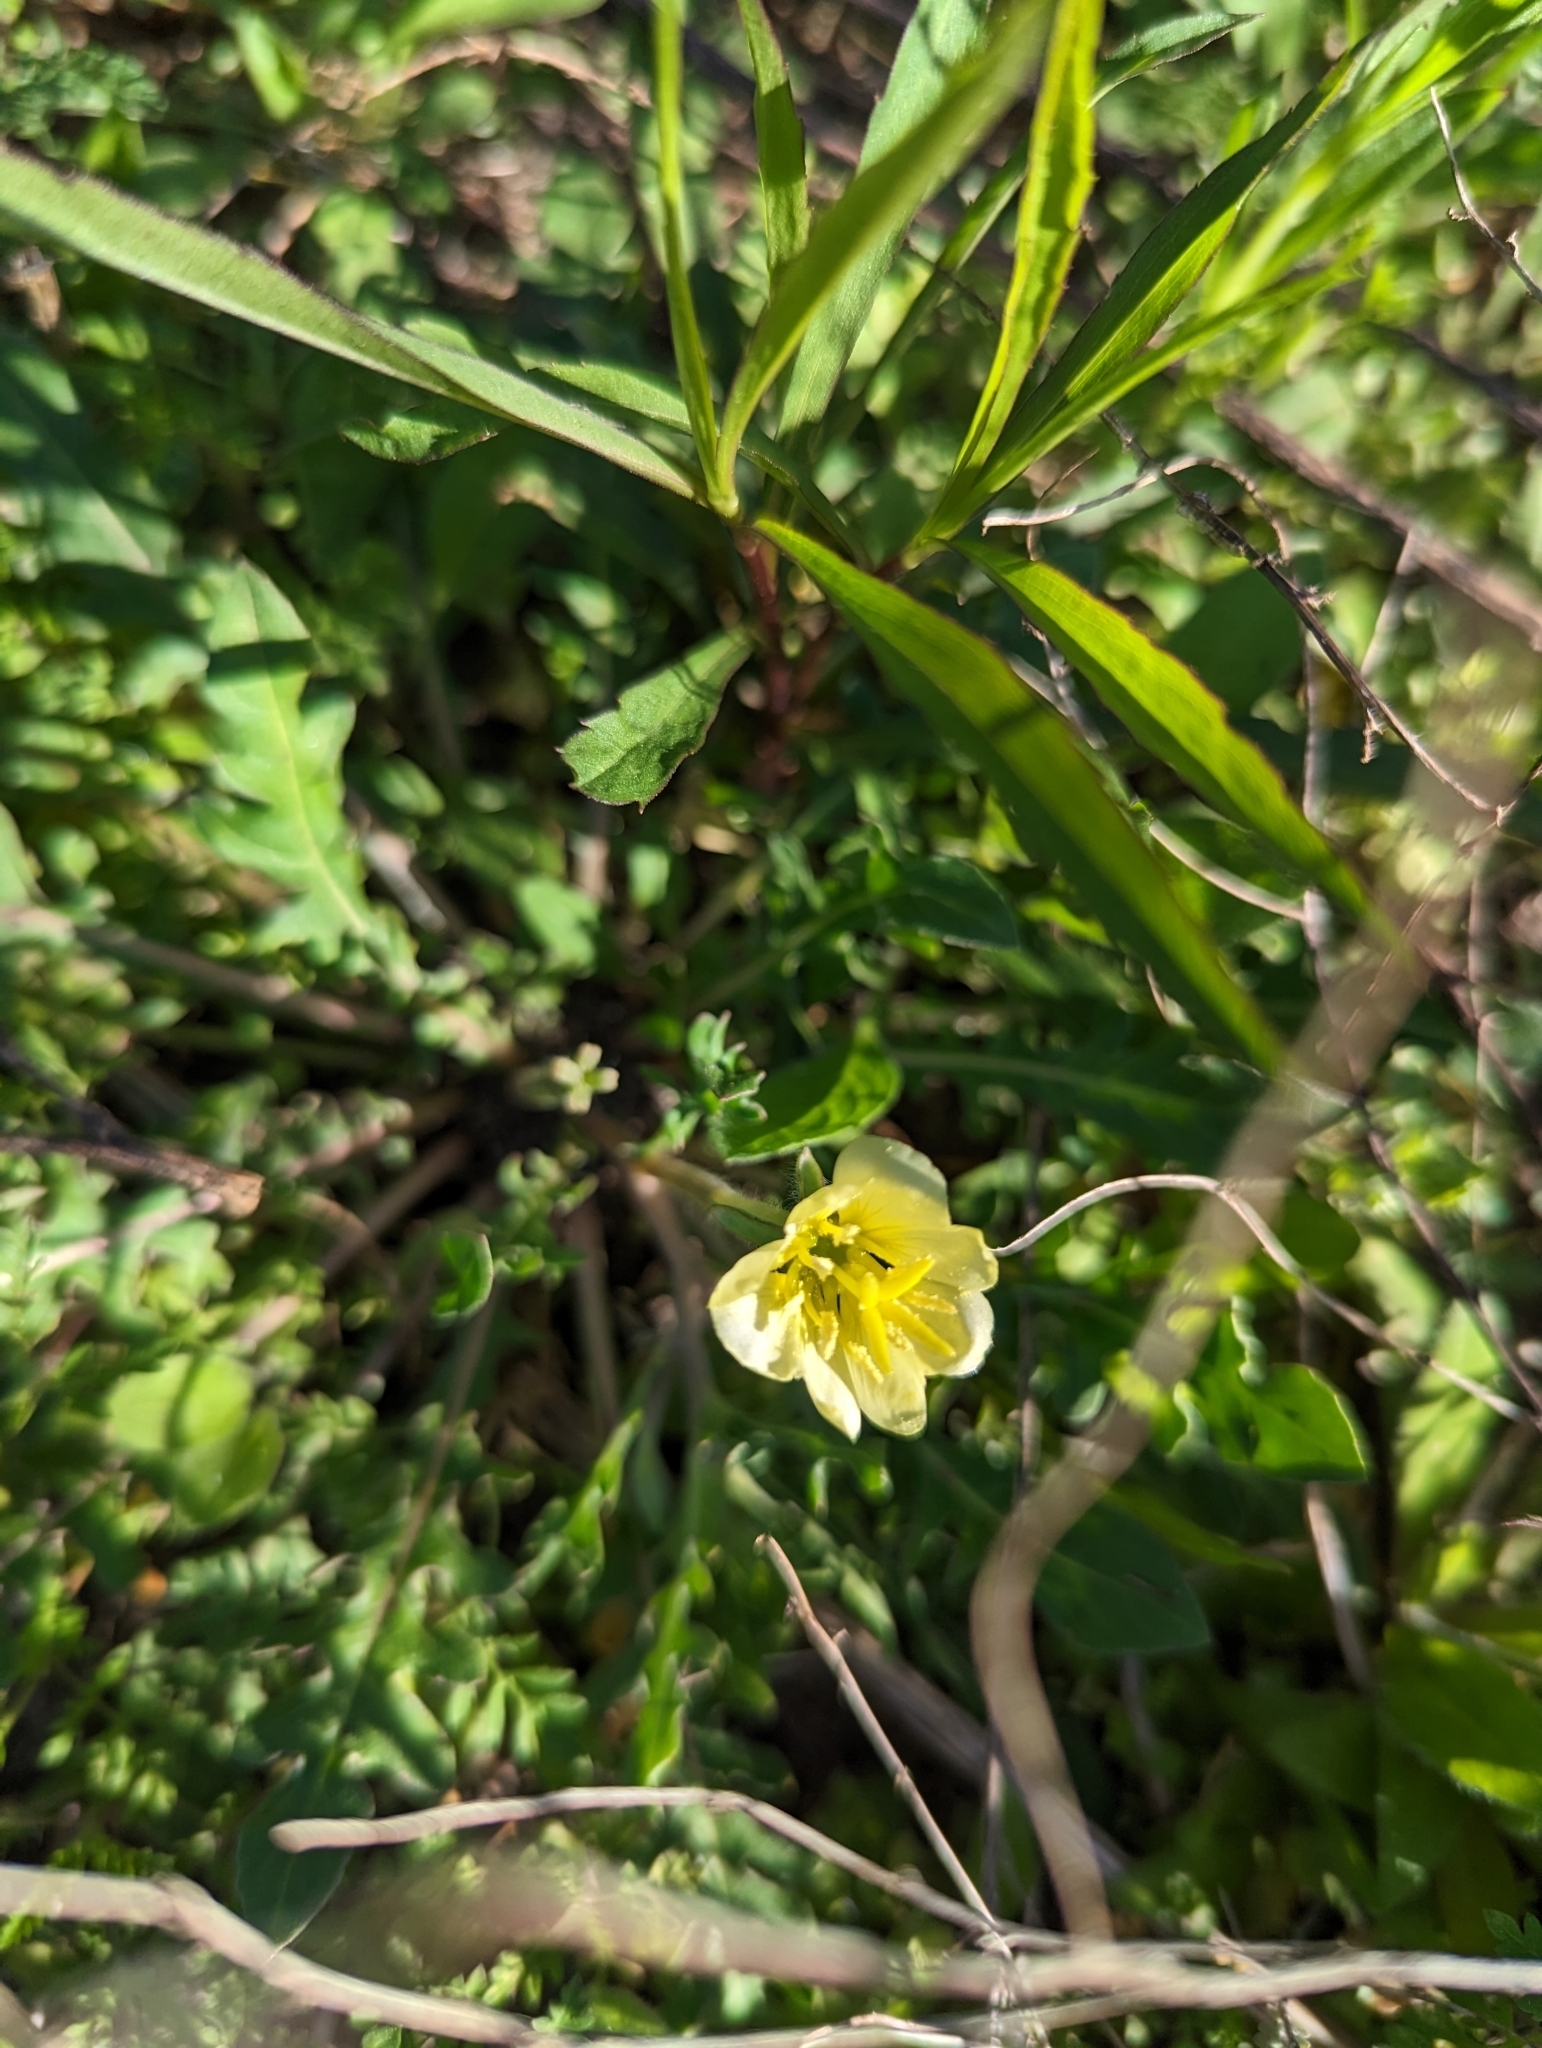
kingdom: Plantae
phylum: Tracheophyta
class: Magnoliopsida
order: Myrtales
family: Onagraceae
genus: Oenothera
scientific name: Oenothera laciniata
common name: Cut-leaved evening-primrose
